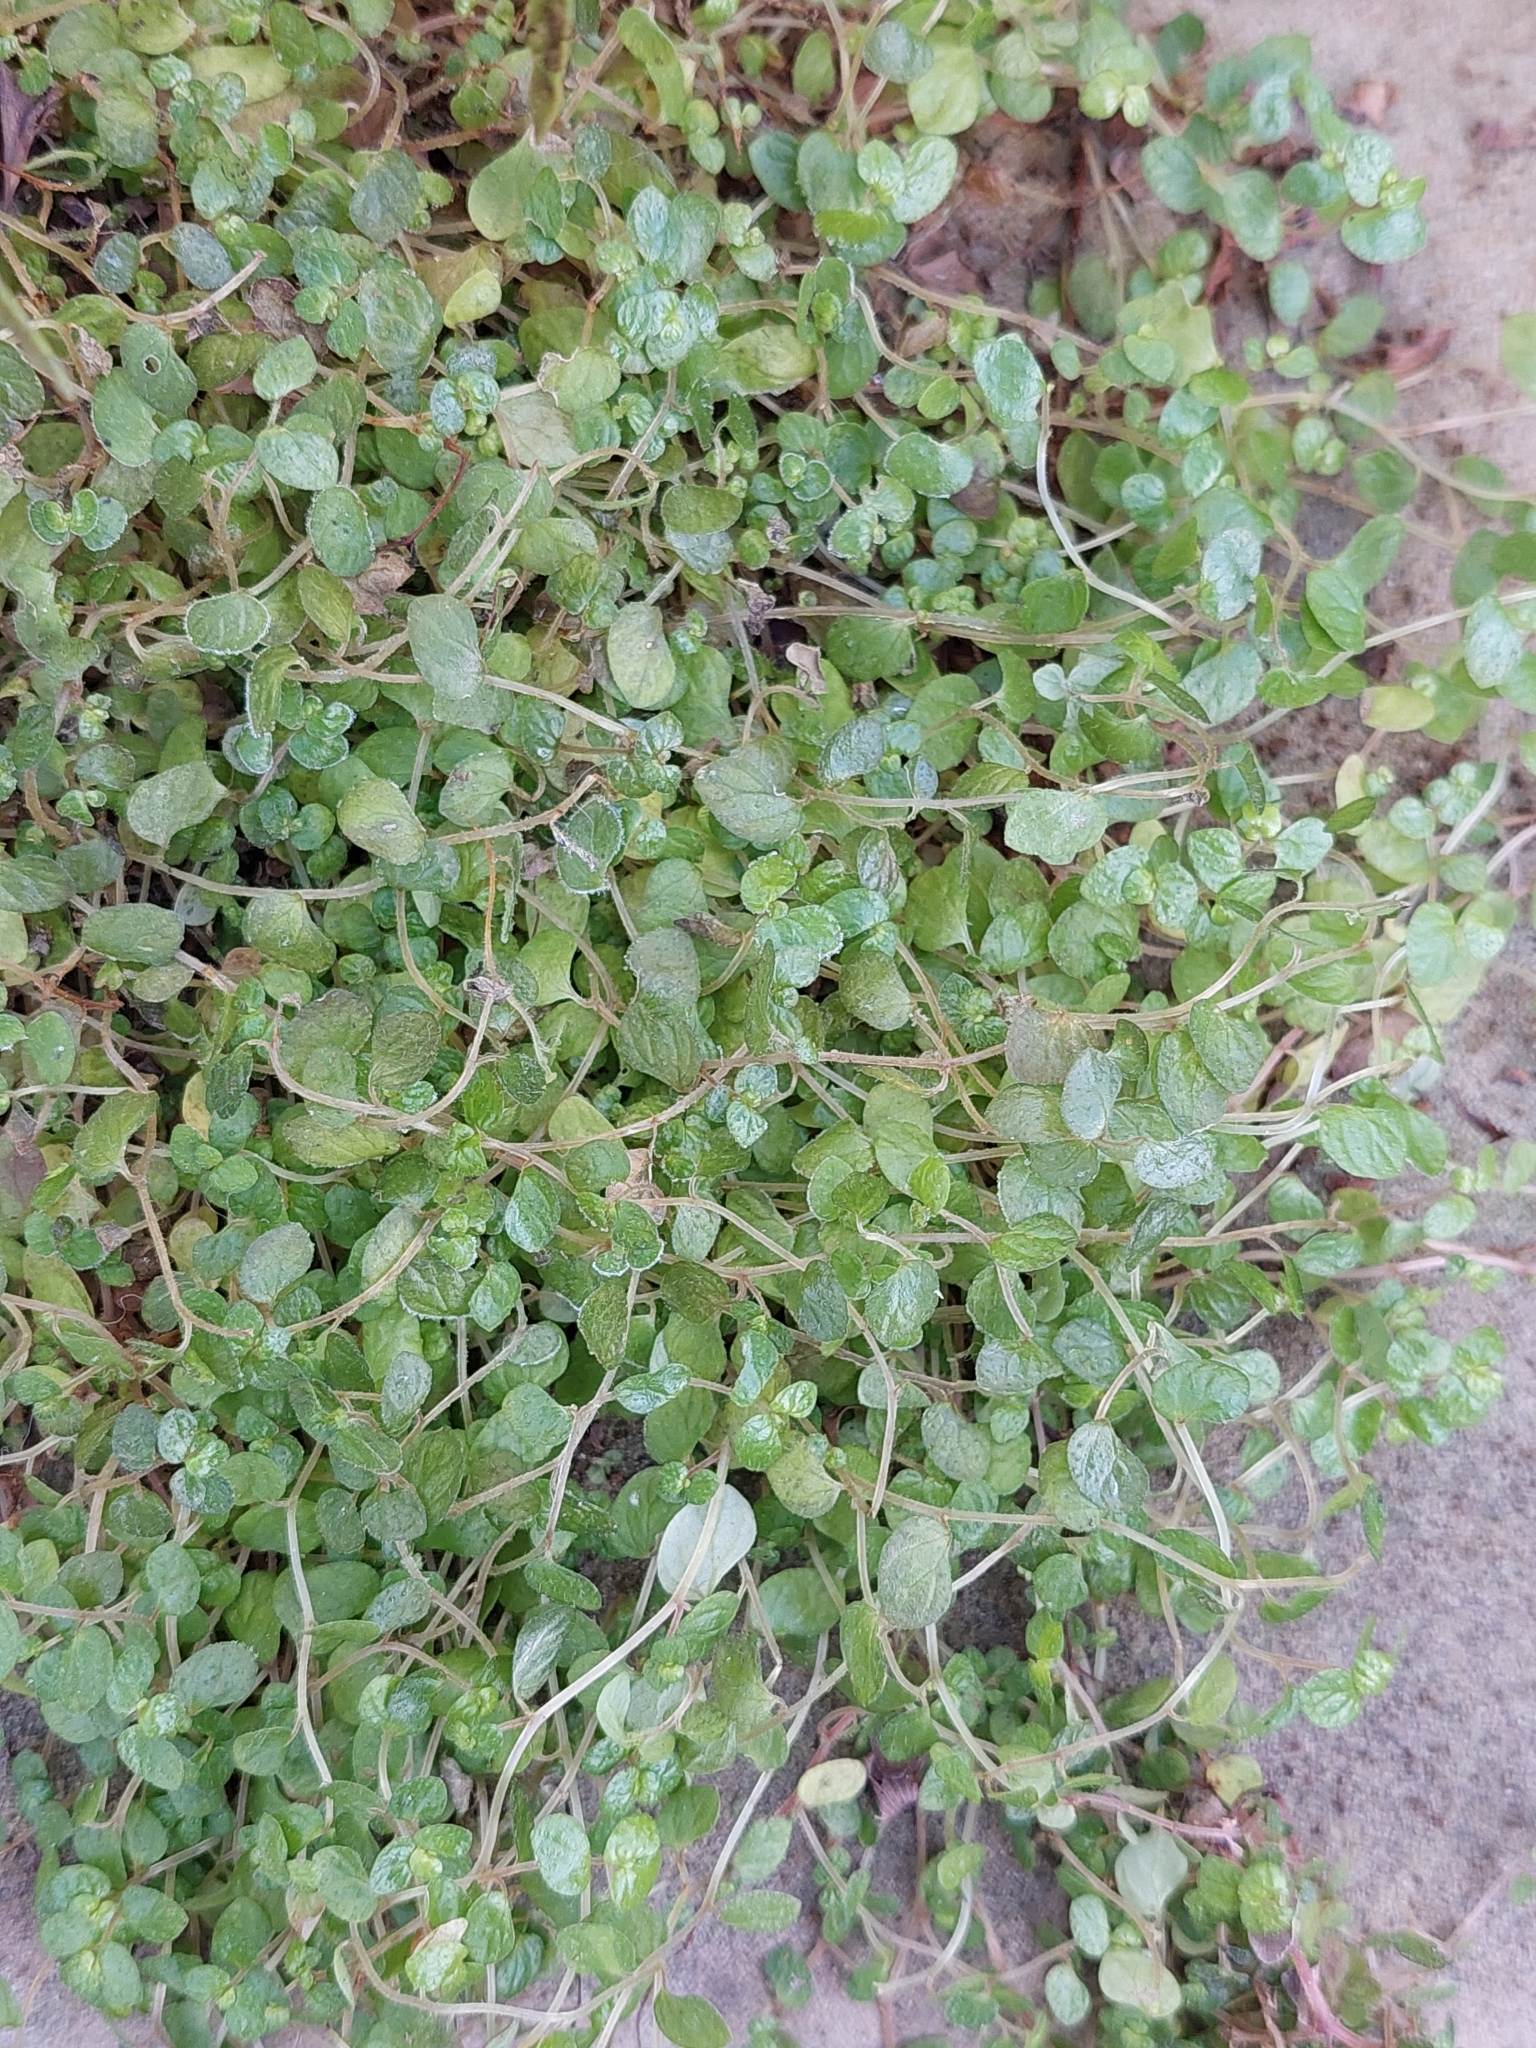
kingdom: Plantae
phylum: Tracheophyta
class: Magnoliopsida
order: Rosales
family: Urticaceae
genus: Soleirolia
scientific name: Soleirolia soleirolii
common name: Mind-your-own-business
